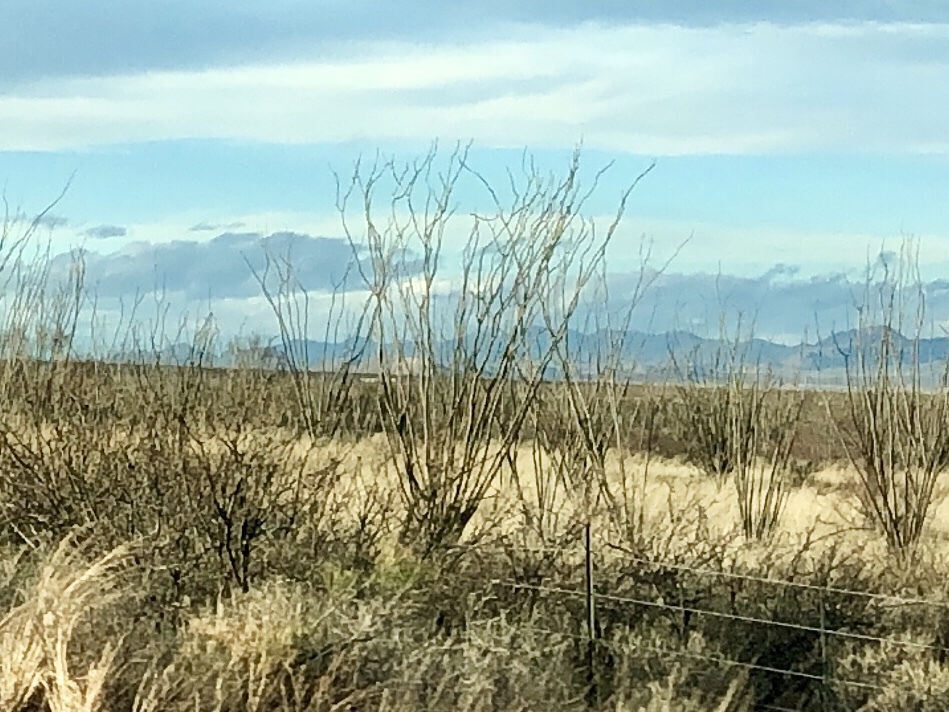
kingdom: Plantae
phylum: Tracheophyta
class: Magnoliopsida
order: Ericales
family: Fouquieriaceae
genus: Fouquieria
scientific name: Fouquieria splendens
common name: Vine-cactus
